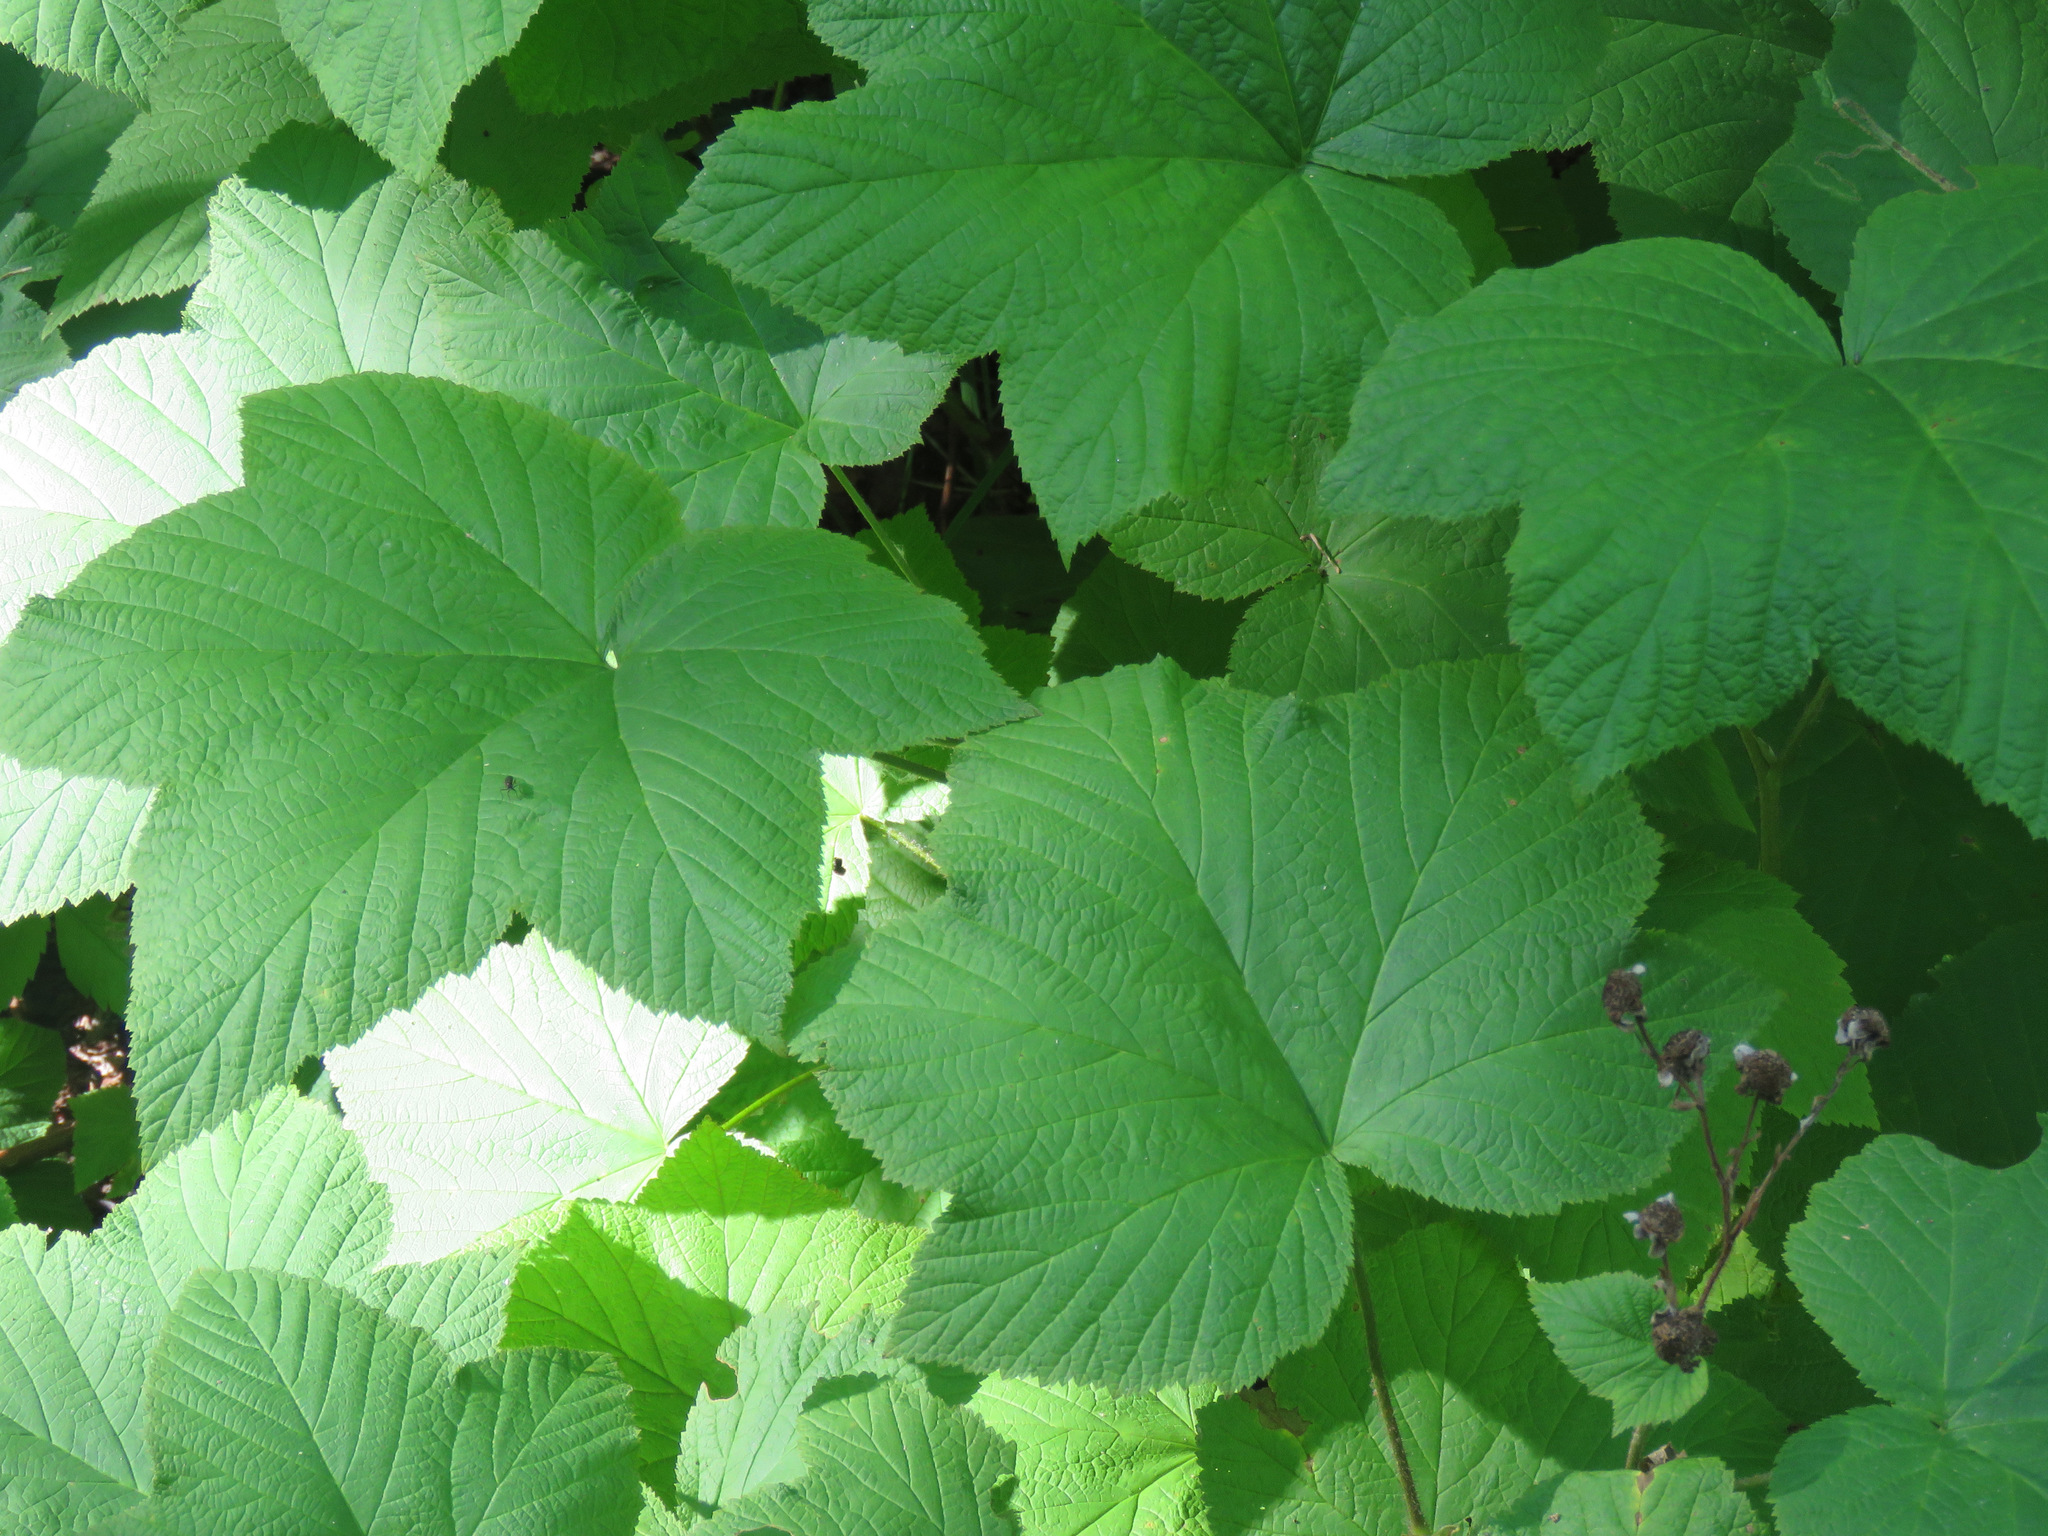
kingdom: Plantae
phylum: Tracheophyta
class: Magnoliopsida
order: Rosales
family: Rosaceae
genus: Rubus
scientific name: Rubus parviflorus
